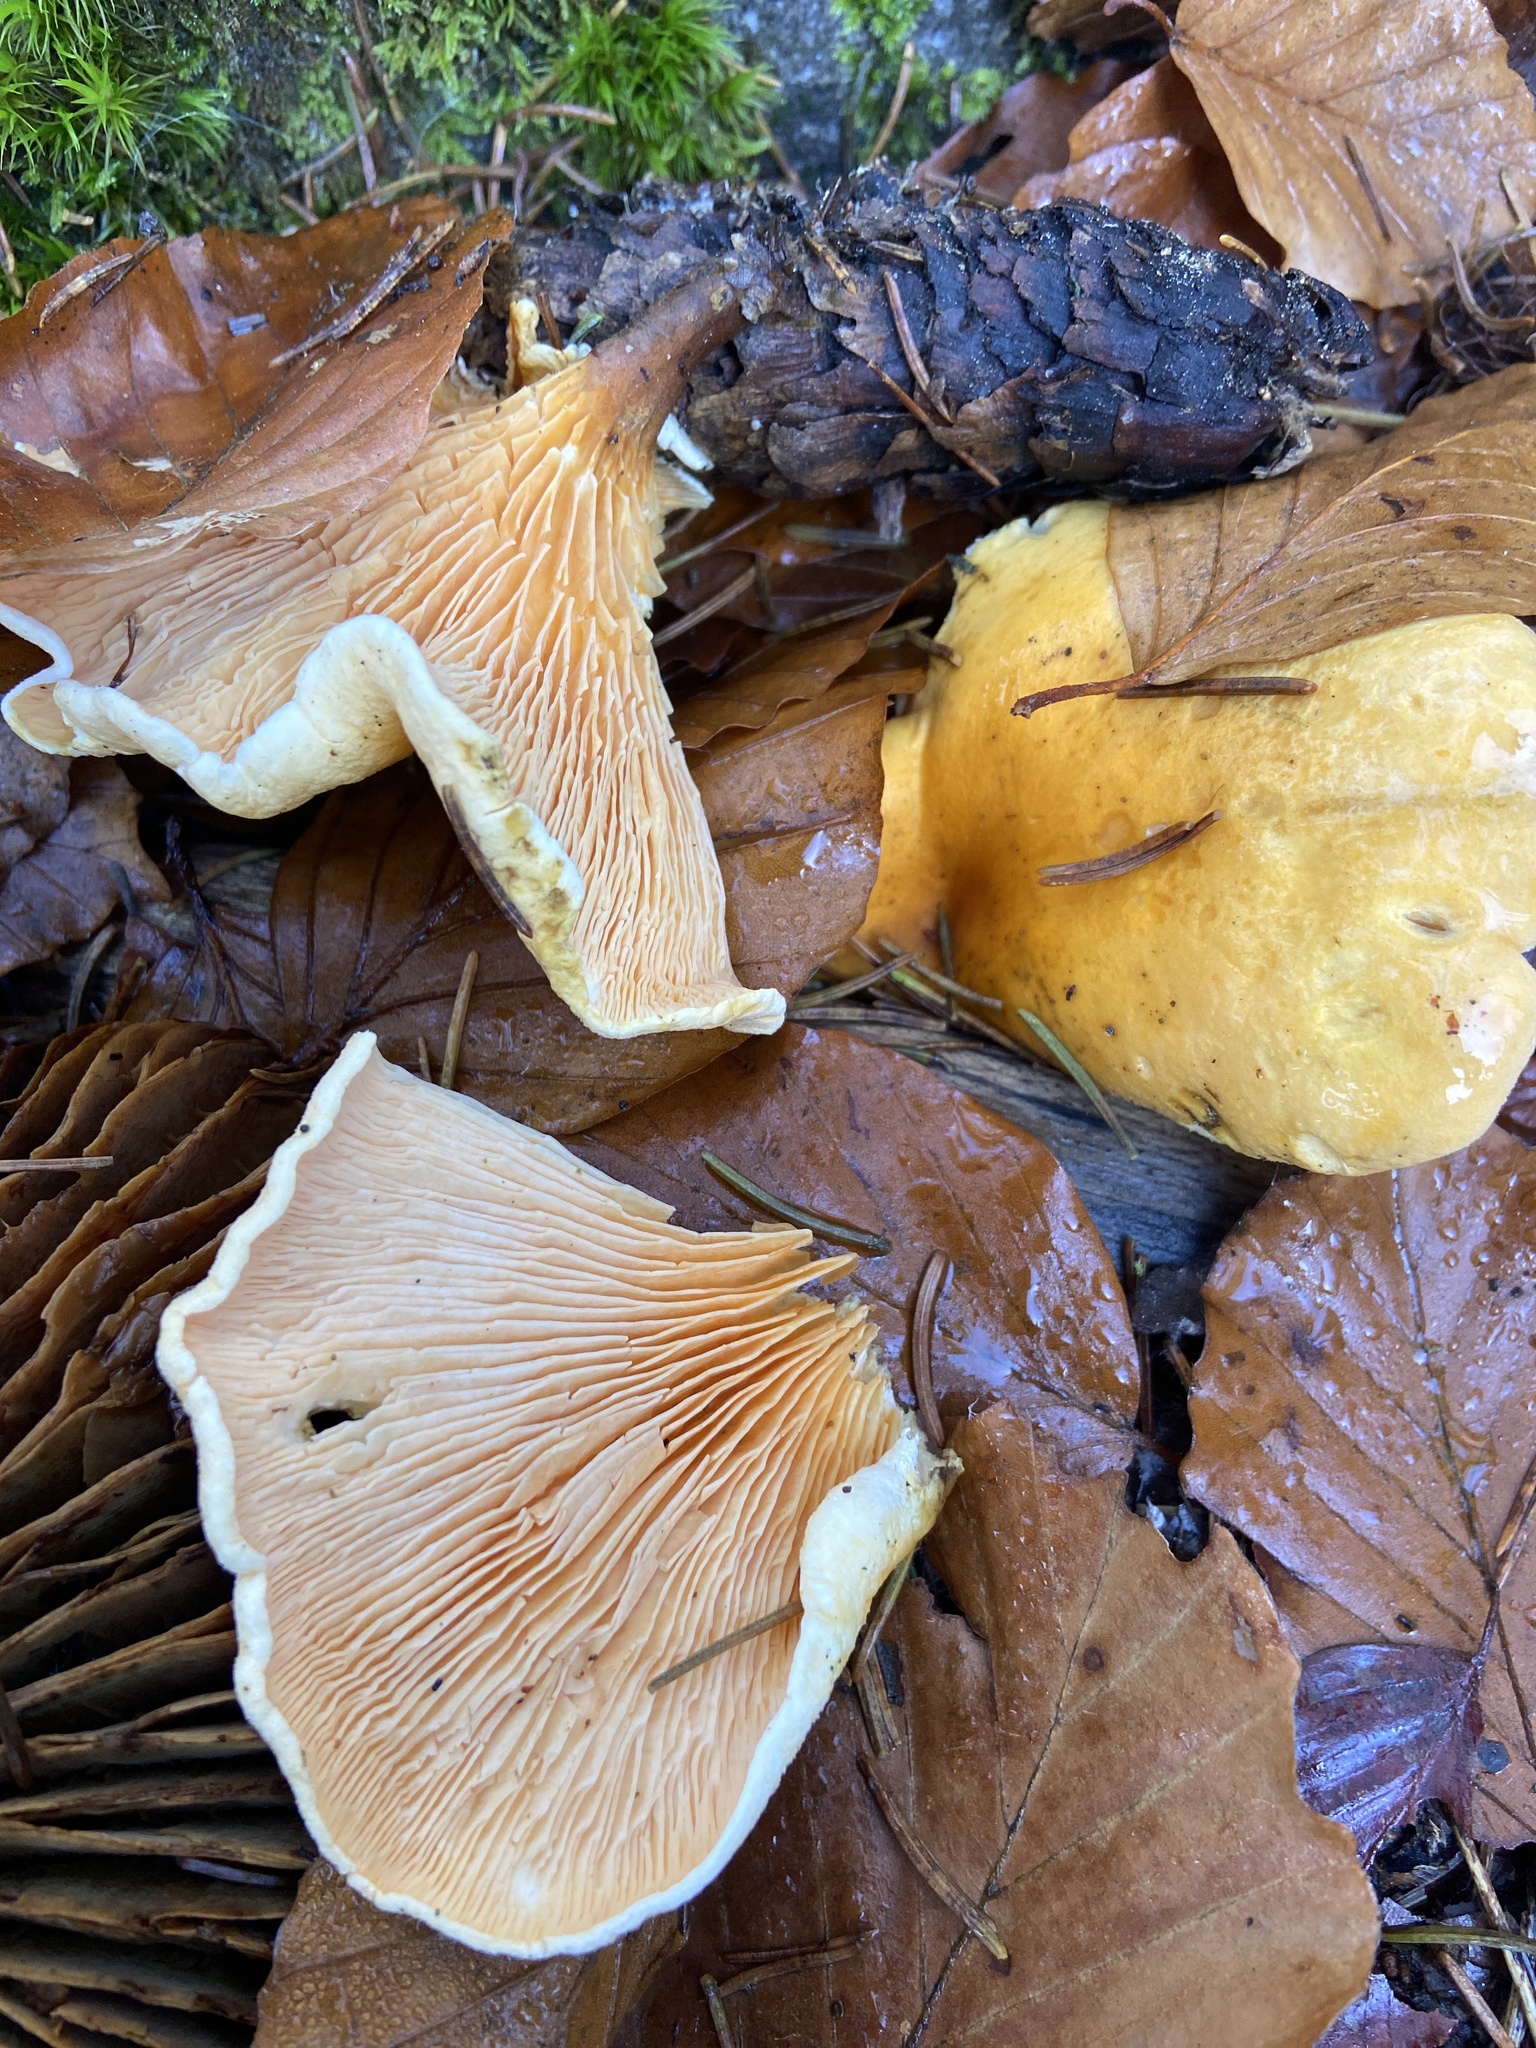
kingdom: Fungi
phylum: Basidiomycota
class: Agaricomycetes
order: Boletales
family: Hygrophoropsidaceae
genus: Hygrophoropsis
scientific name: Hygrophoropsis aurantiaca
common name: False chanterelle
